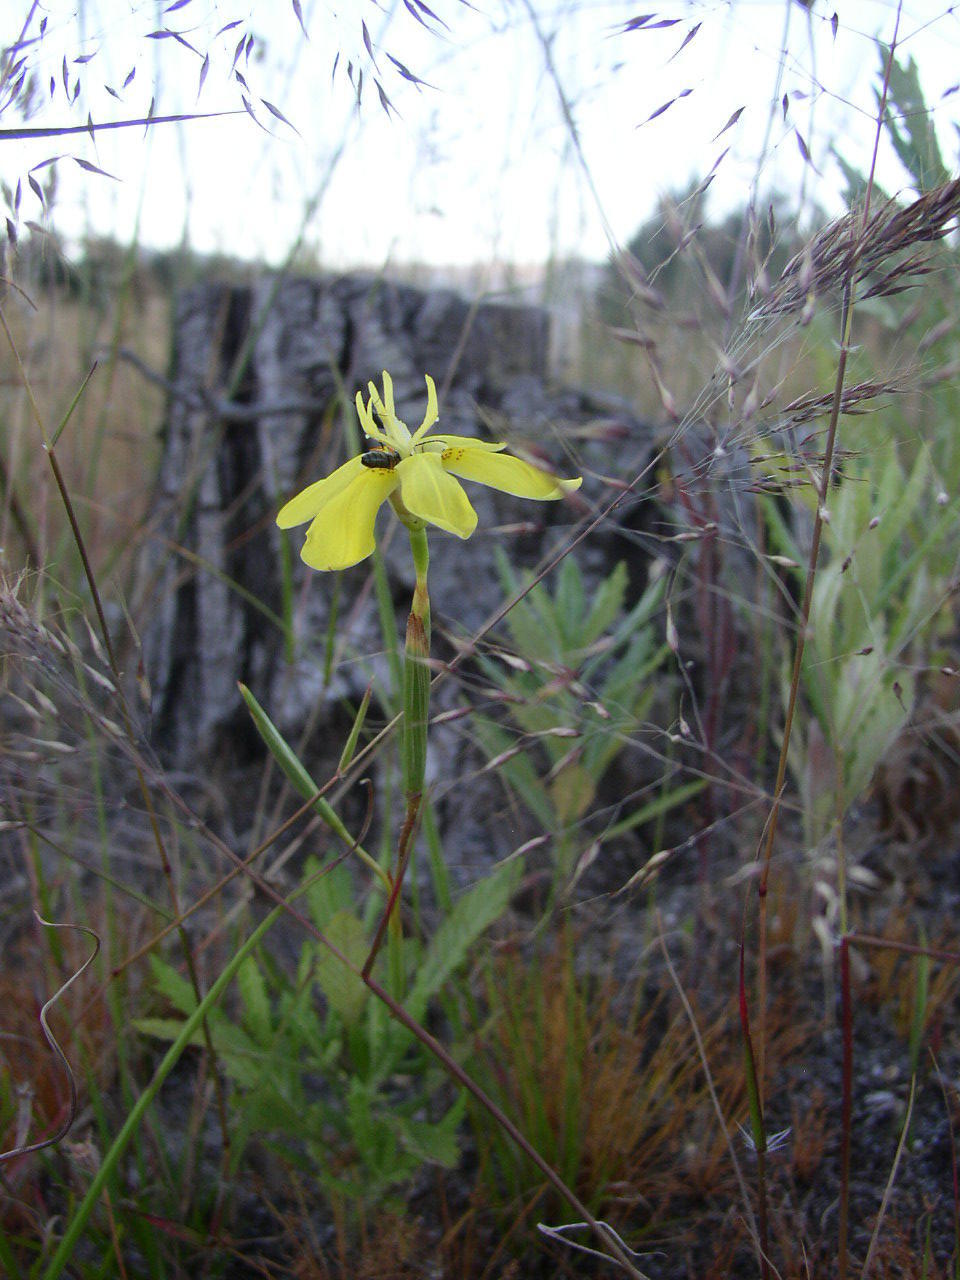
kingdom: Plantae
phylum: Tracheophyta
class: Liliopsida
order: Asparagales
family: Iridaceae
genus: Moraea
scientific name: Moraea bituminosa
